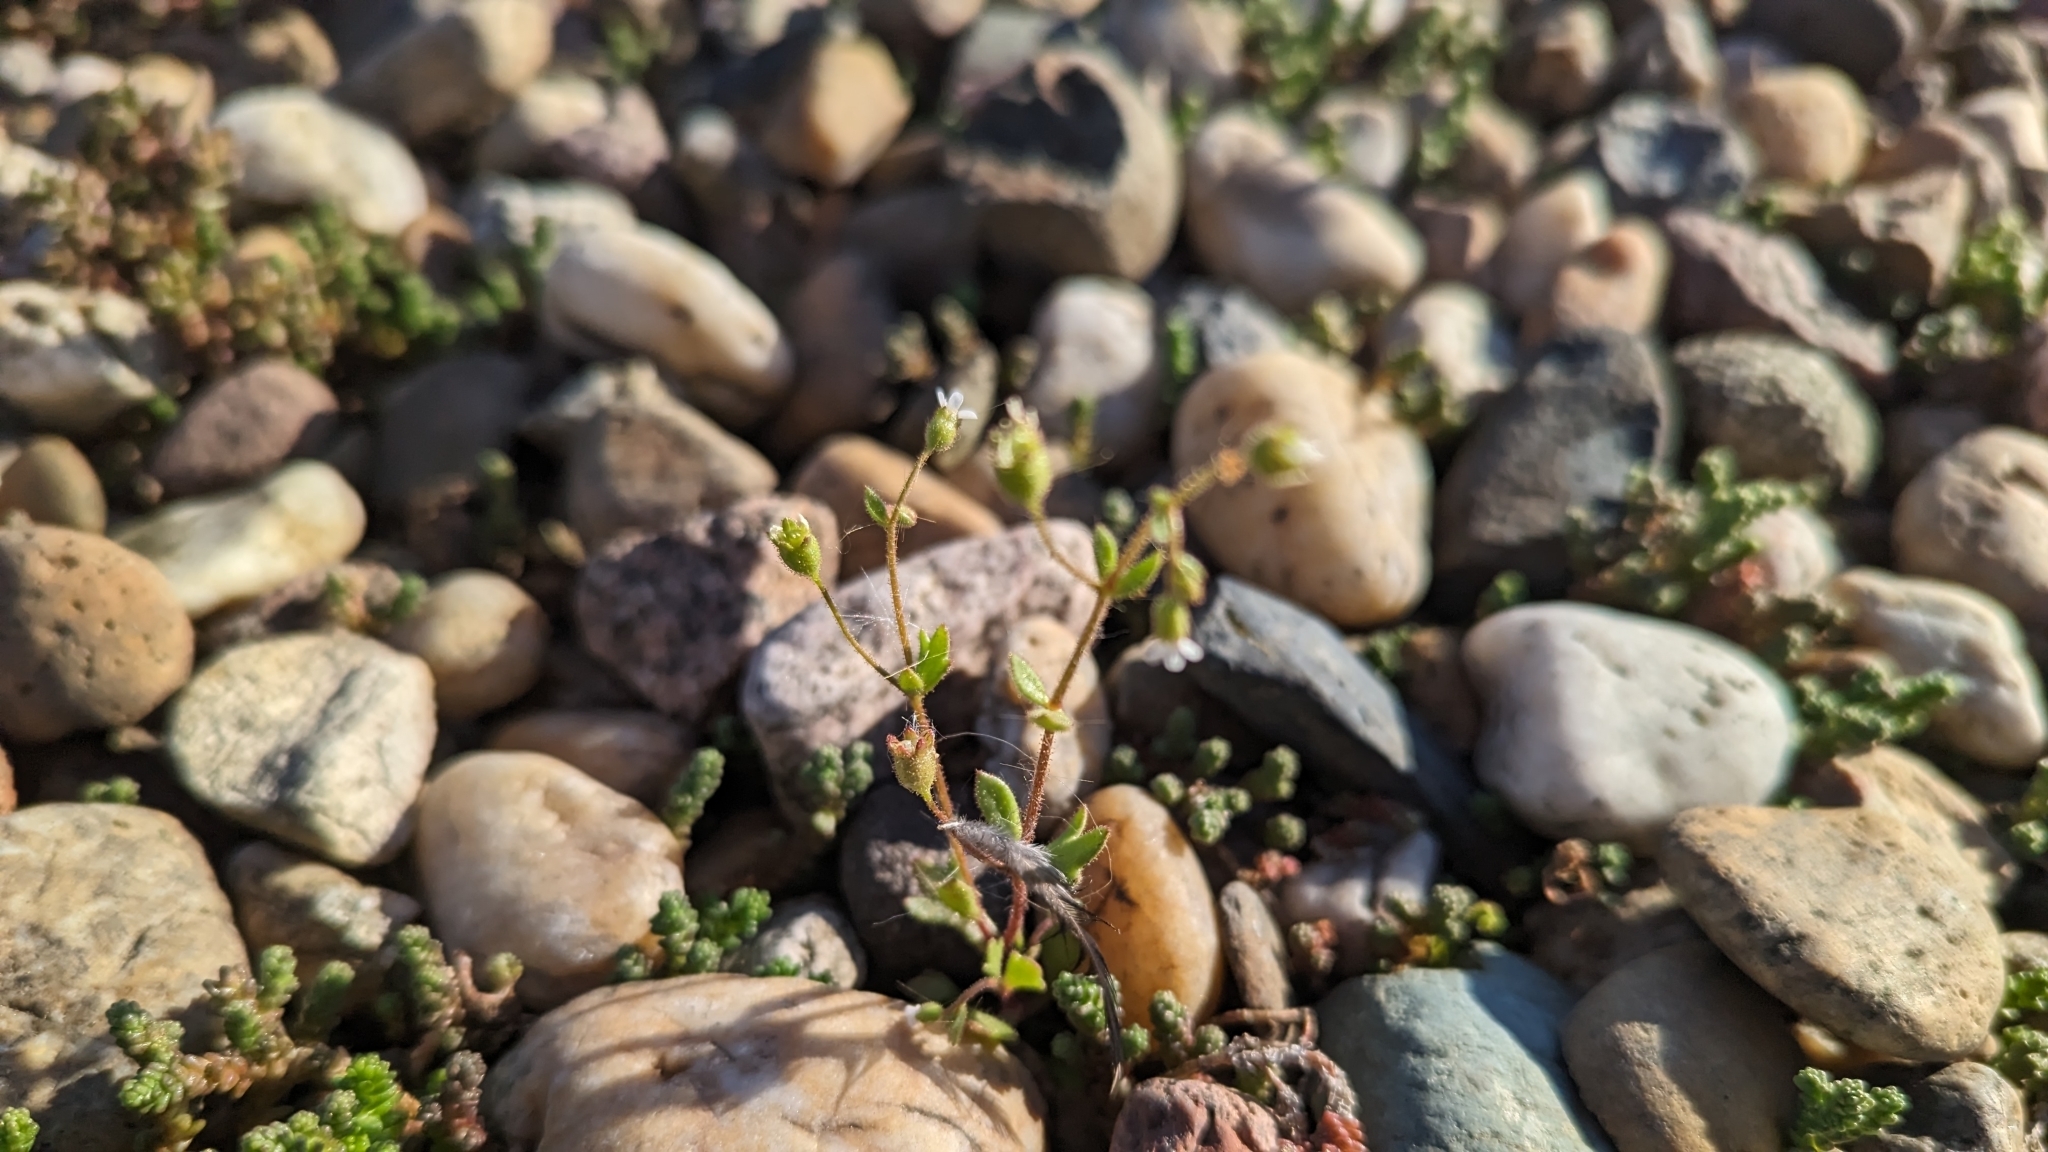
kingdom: Plantae
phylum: Tracheophyta
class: Magnoliopsida
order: Saxifragales
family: Saxifragaceae
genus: Saxifraga
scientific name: Saxifraga tridactylites
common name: Rue-leaved saxifrage
